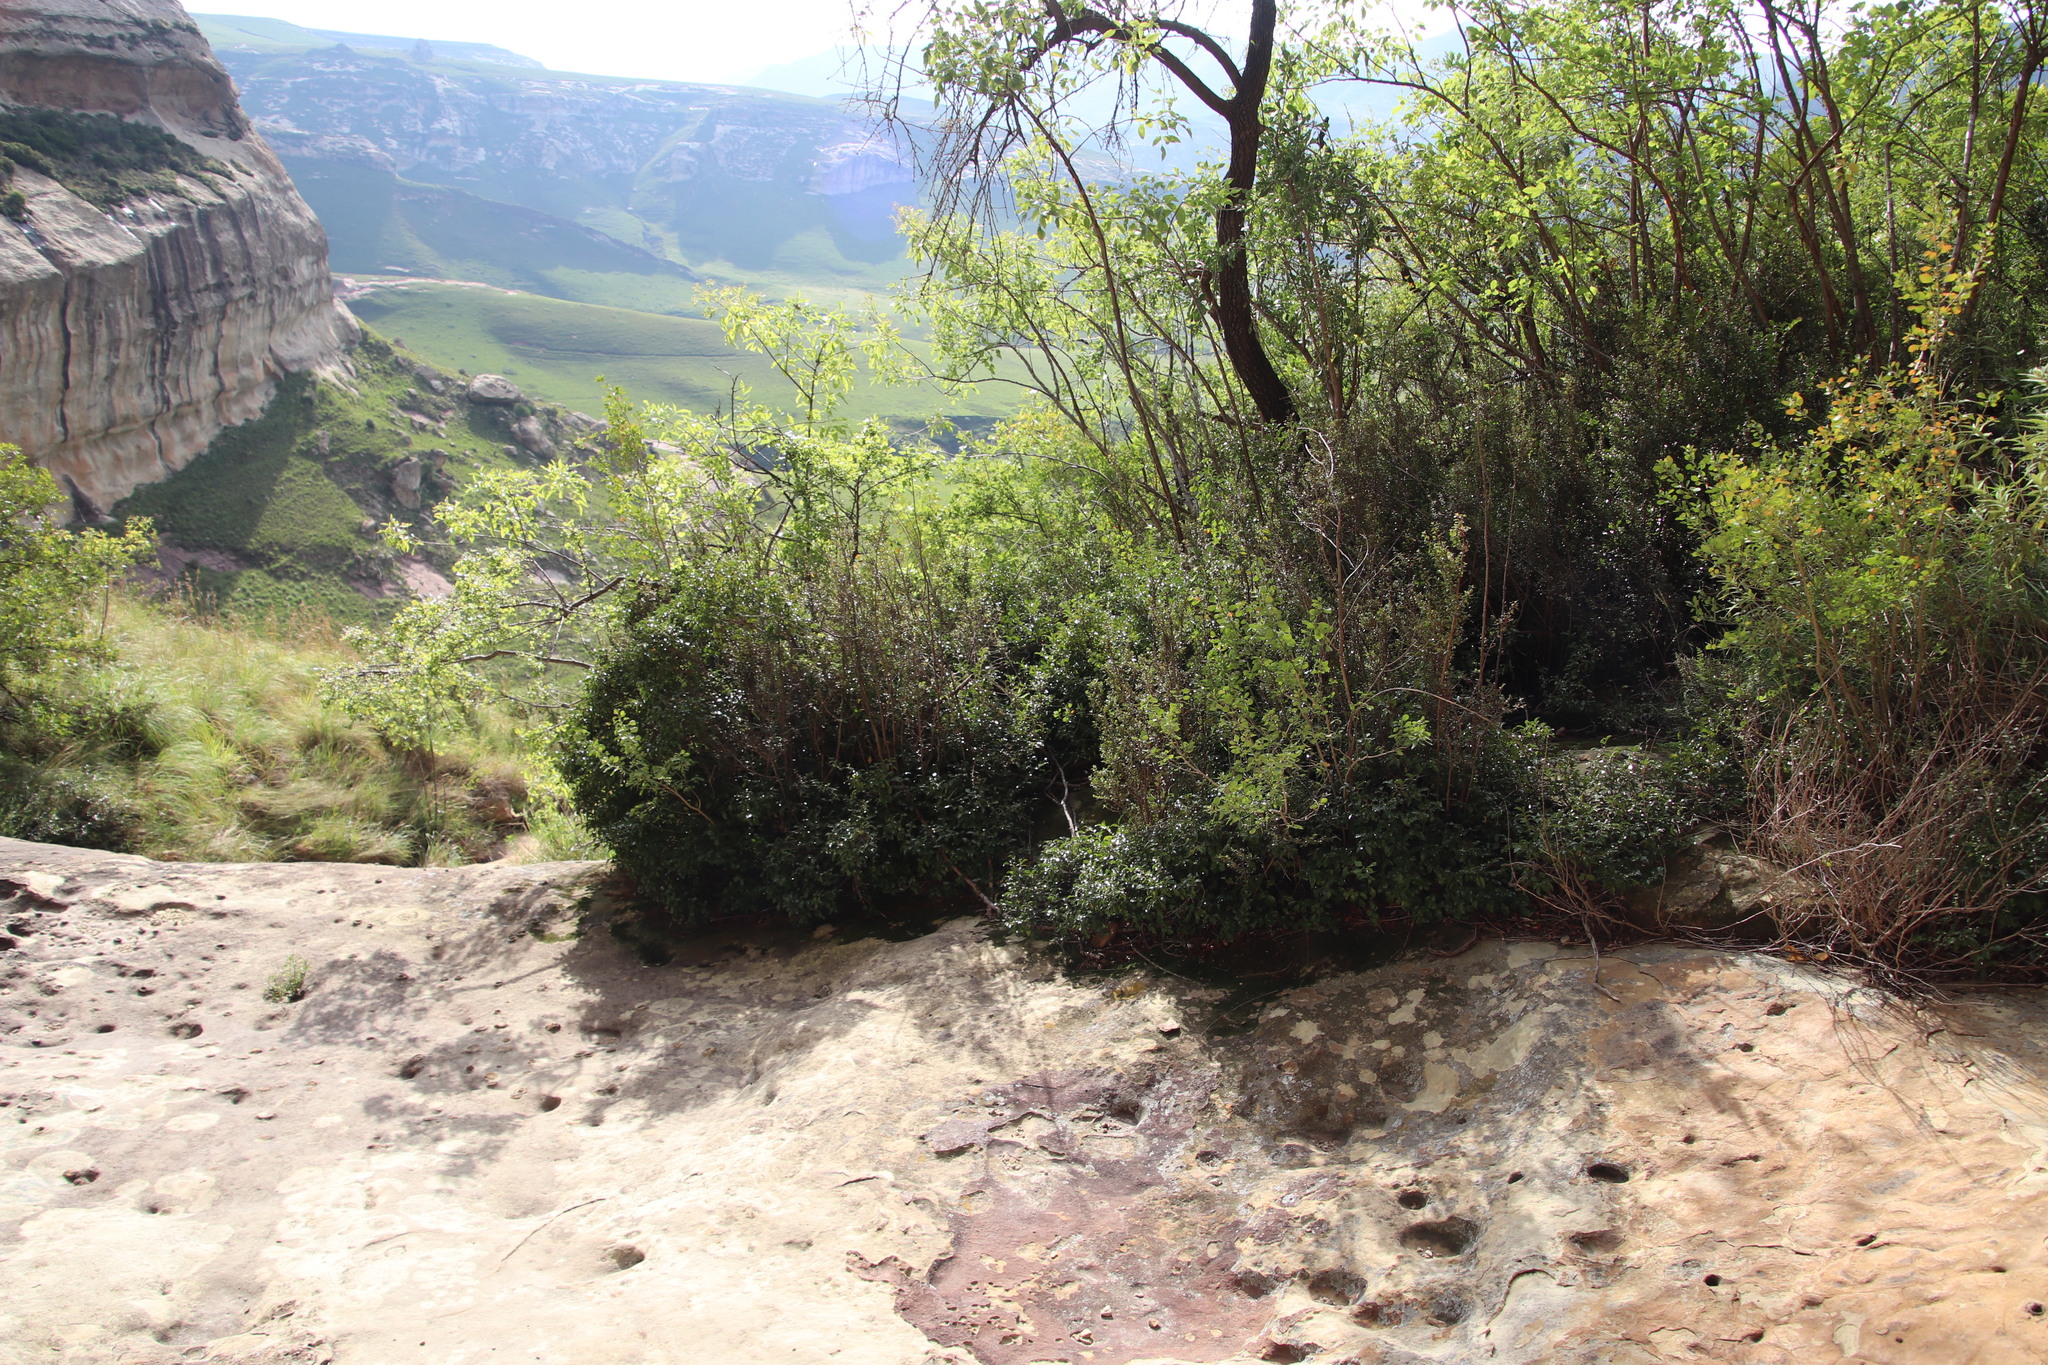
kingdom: Plantae
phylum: Tracheophyta
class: Magnoliopsida
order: Ericales
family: Ebenaceae
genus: Diospyros
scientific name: Diospyros whyteana
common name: Bladder-nut
